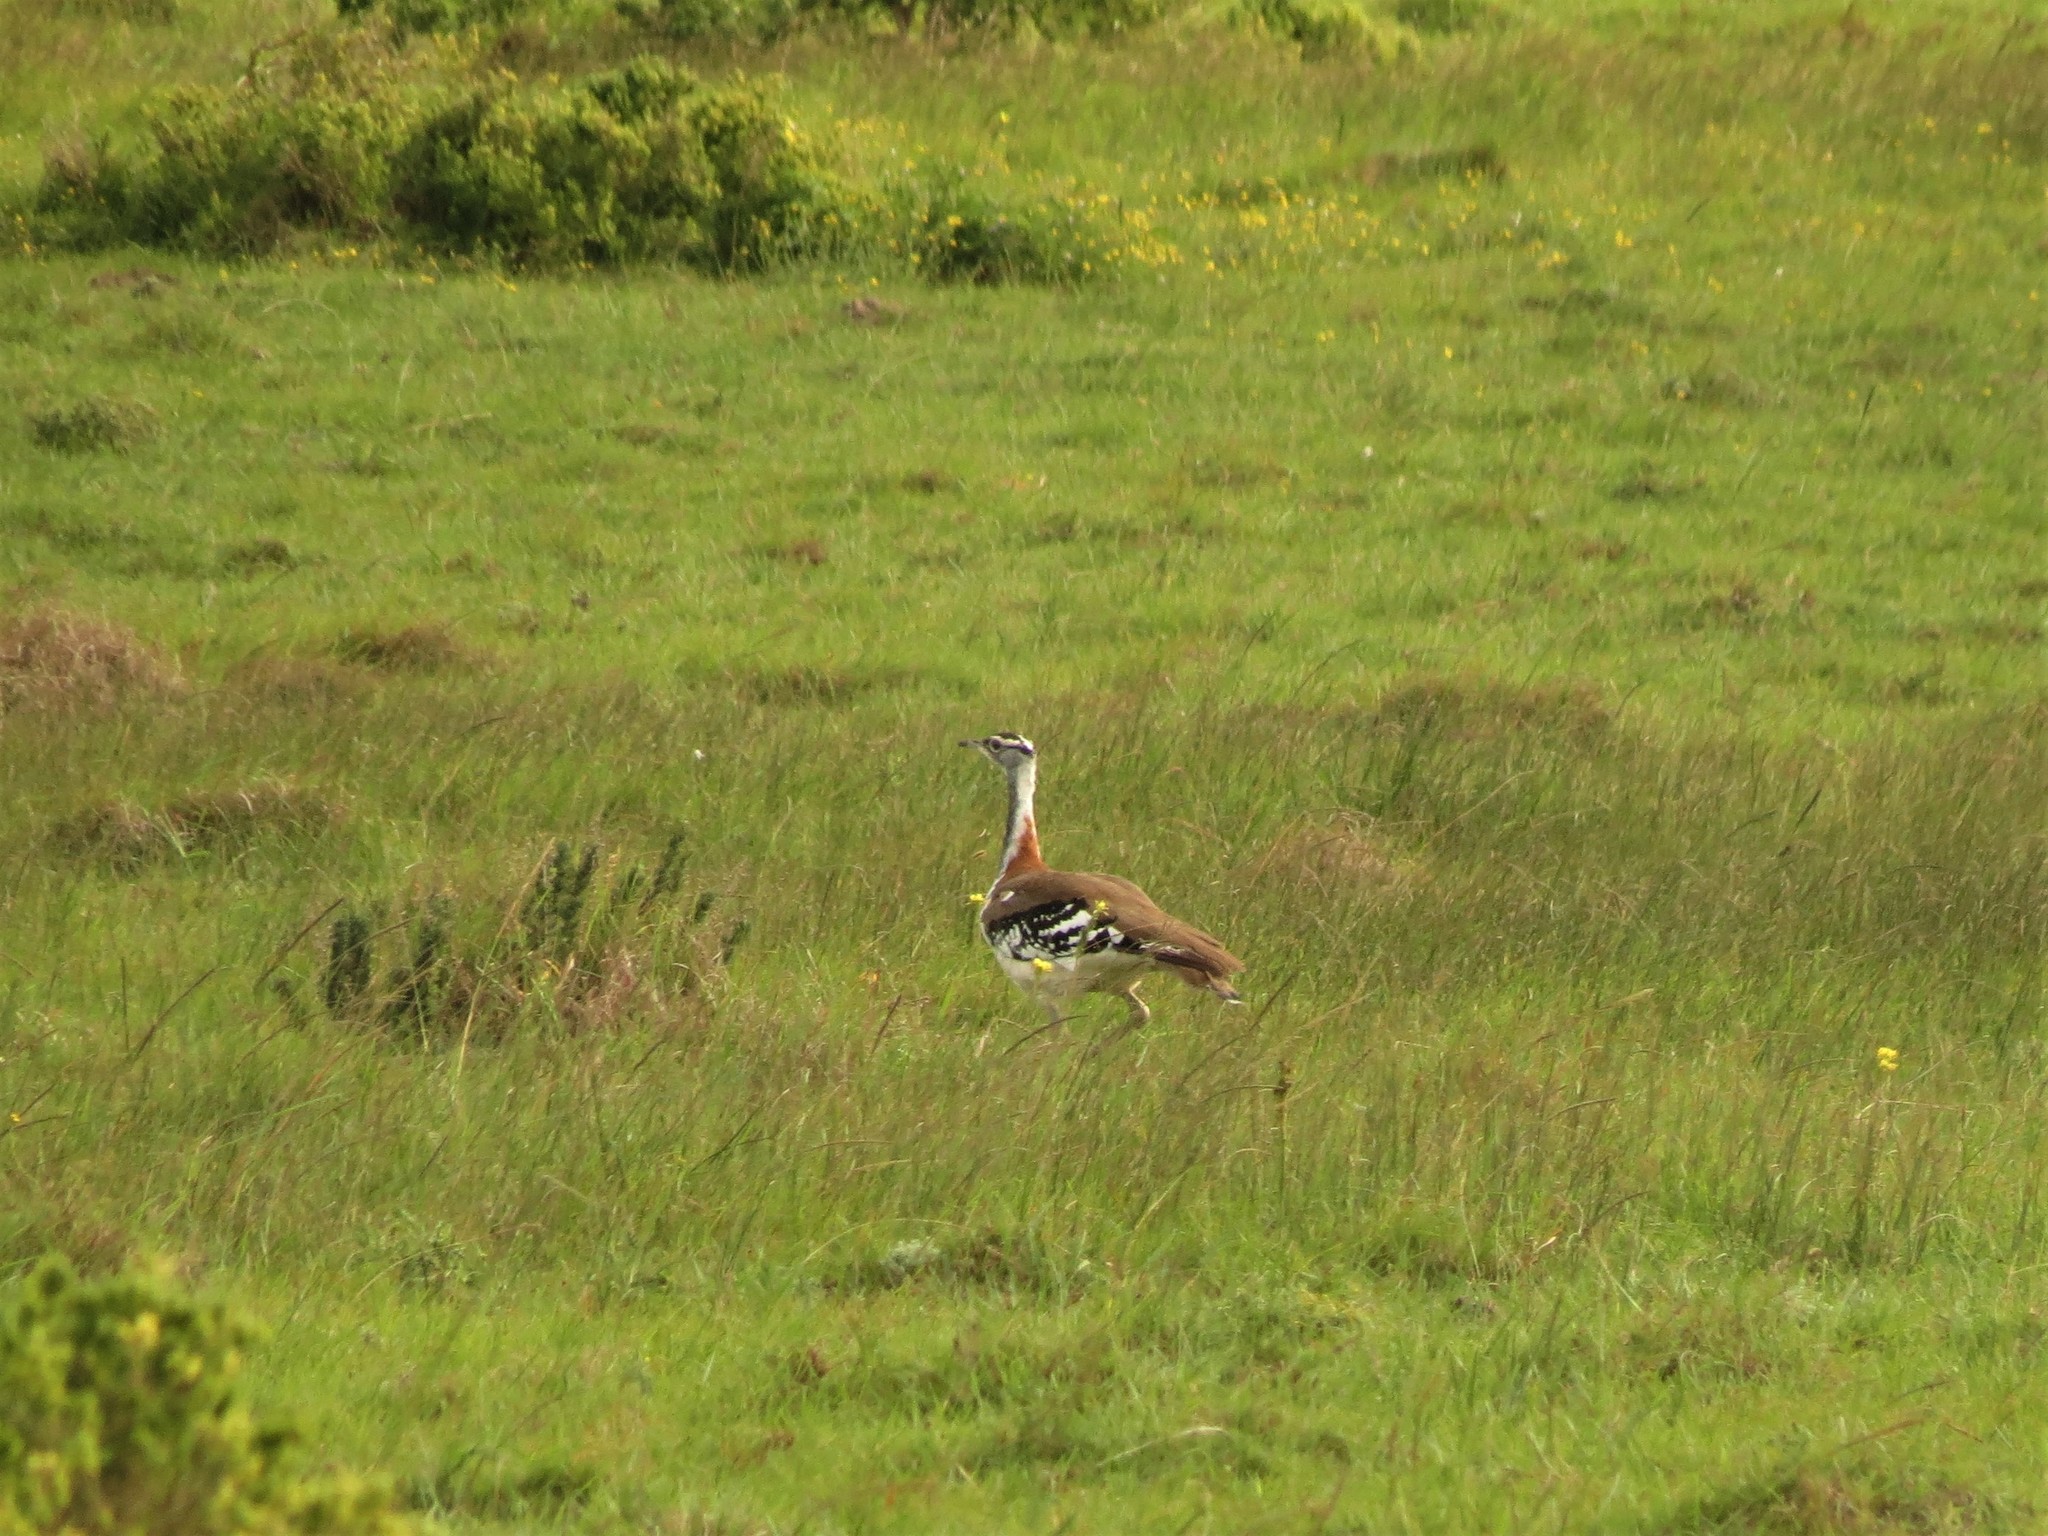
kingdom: Animalia
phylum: Chordata
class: Aves
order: Otidiformes
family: Otididae
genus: Neotis
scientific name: Neotis denhami
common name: Denham's bustard
